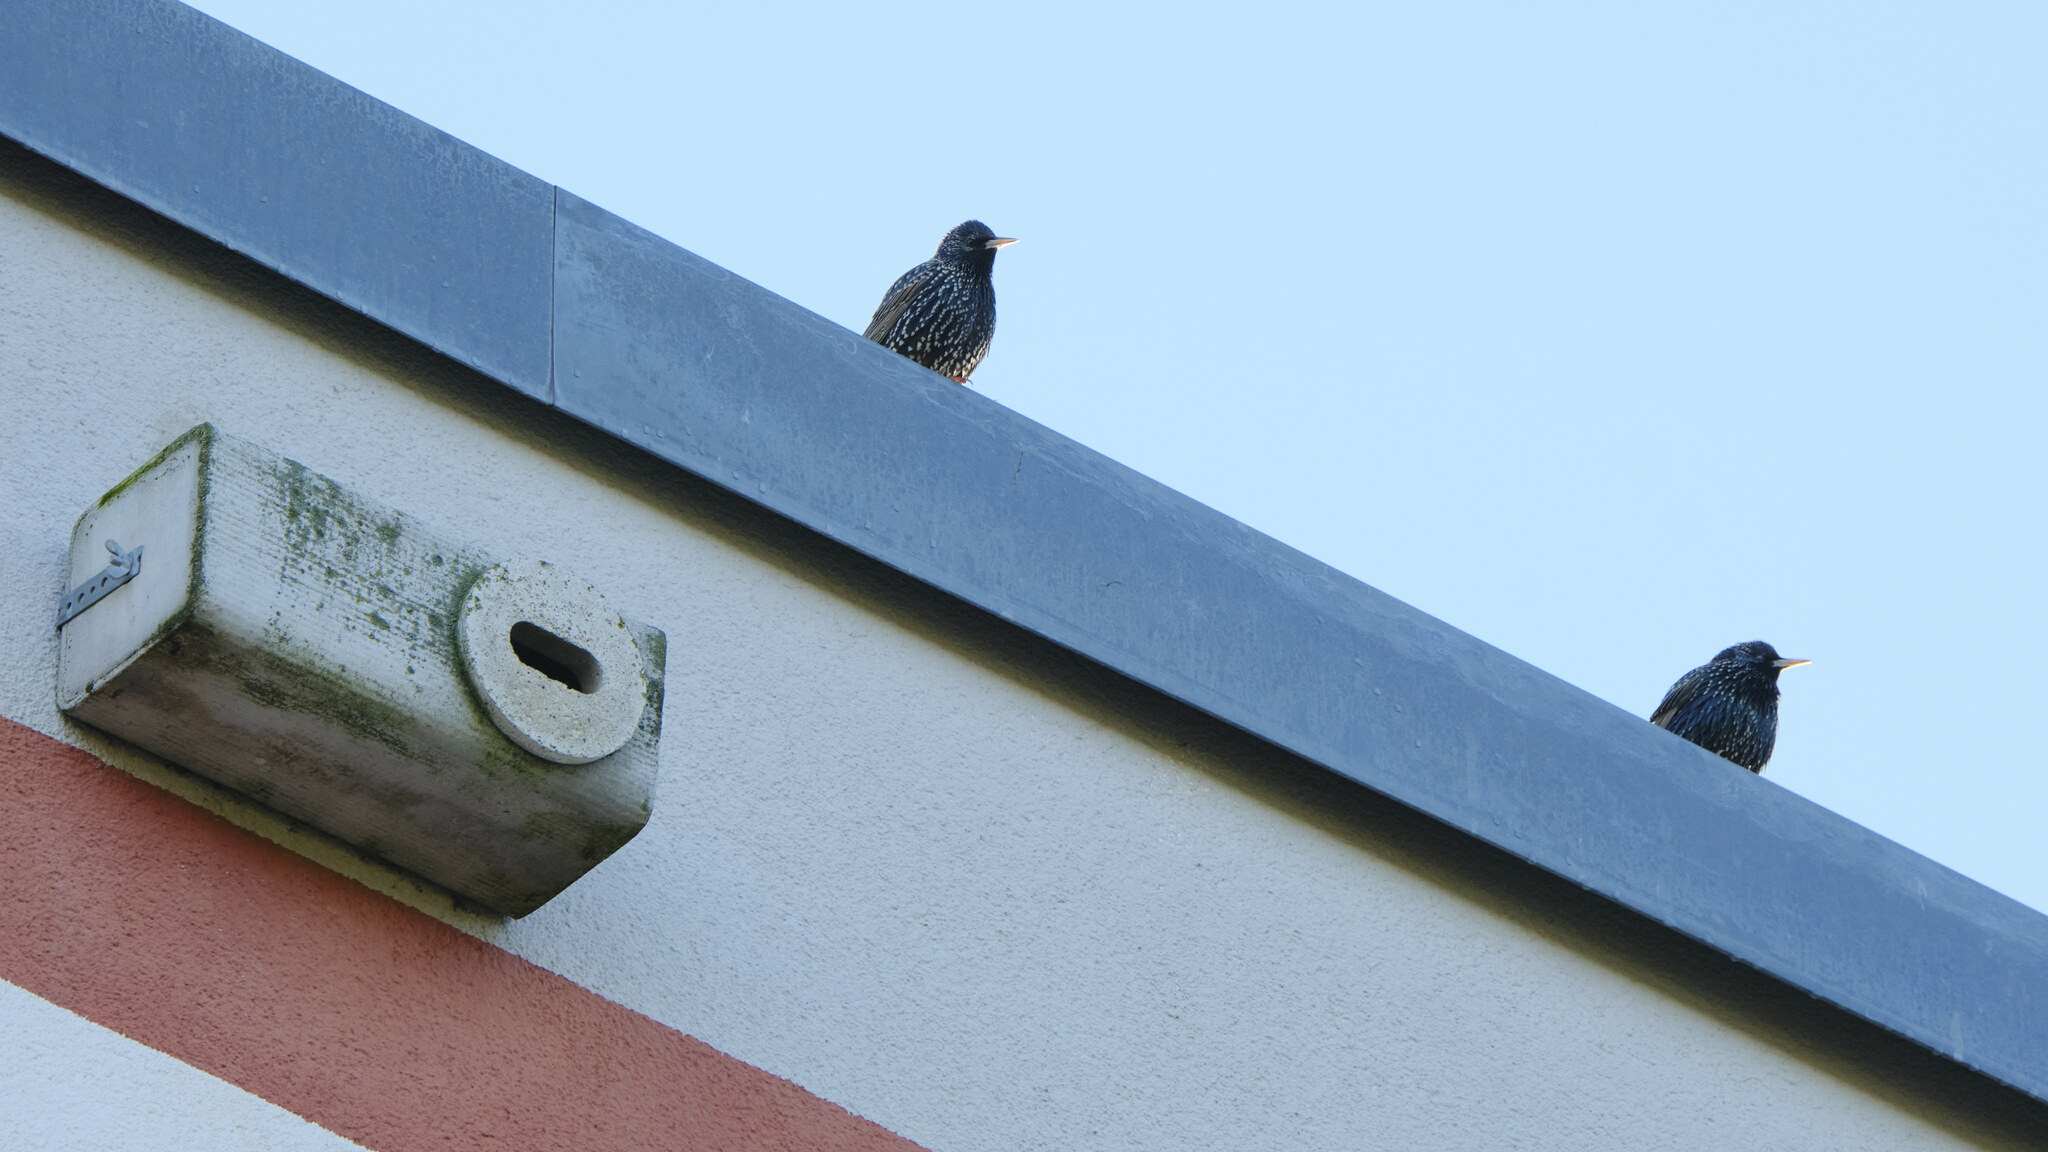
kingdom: Animalia
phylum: Chordata
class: Aves
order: Passeriformes
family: Sturnidae
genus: Sturnus
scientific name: Sturnus vulgaris
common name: Common starling
